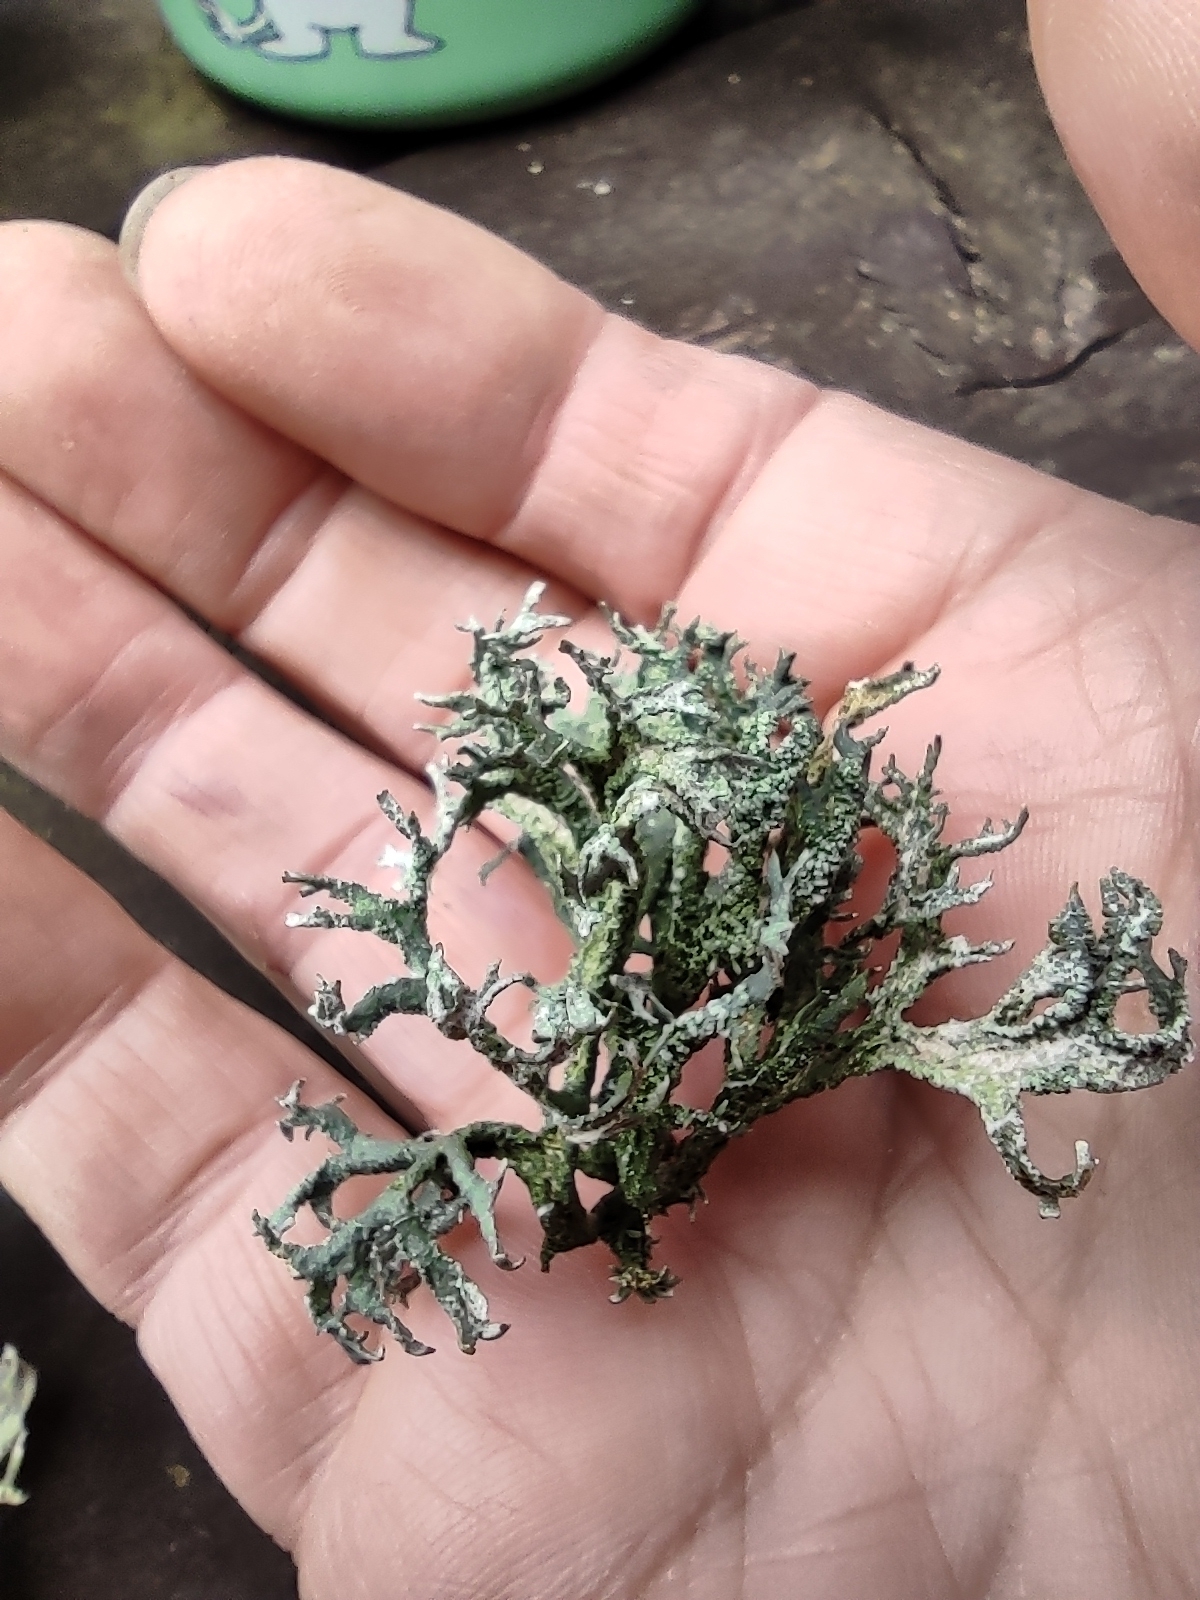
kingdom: Fungi
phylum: Ascomycota
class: Lecanoromycetes
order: Lecanorales
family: Parmeliaceae
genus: Evernia
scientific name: Evernia prunastri
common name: Oak moss
